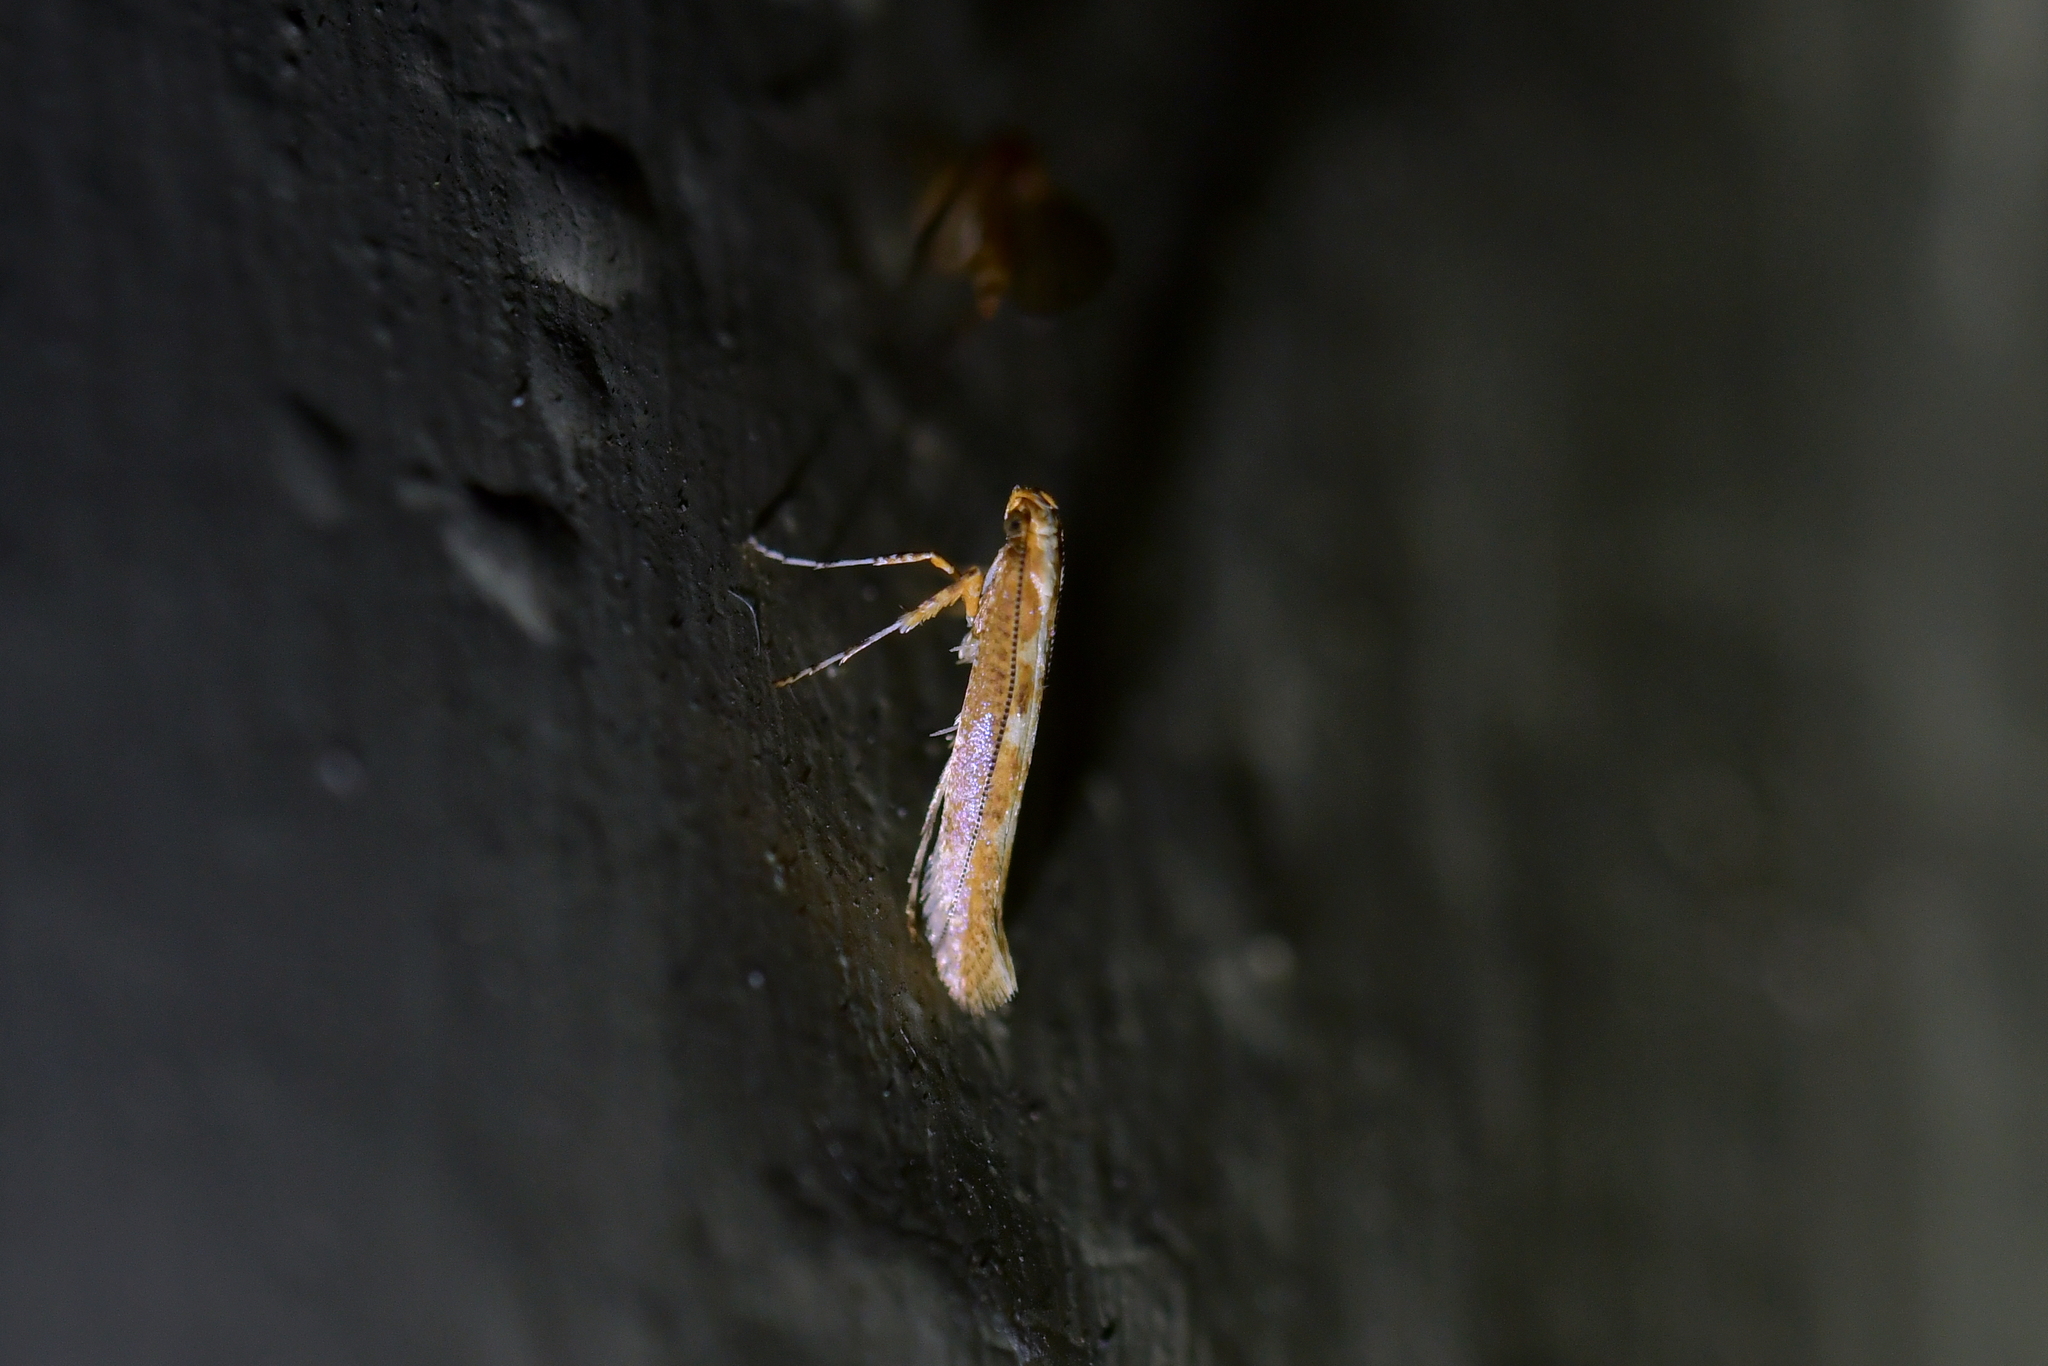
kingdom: Animalia
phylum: Arthropoda
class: Insecta
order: Lepidoptera
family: Gracillariidae
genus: Caloptilia
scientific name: Caloptilia selenitis
